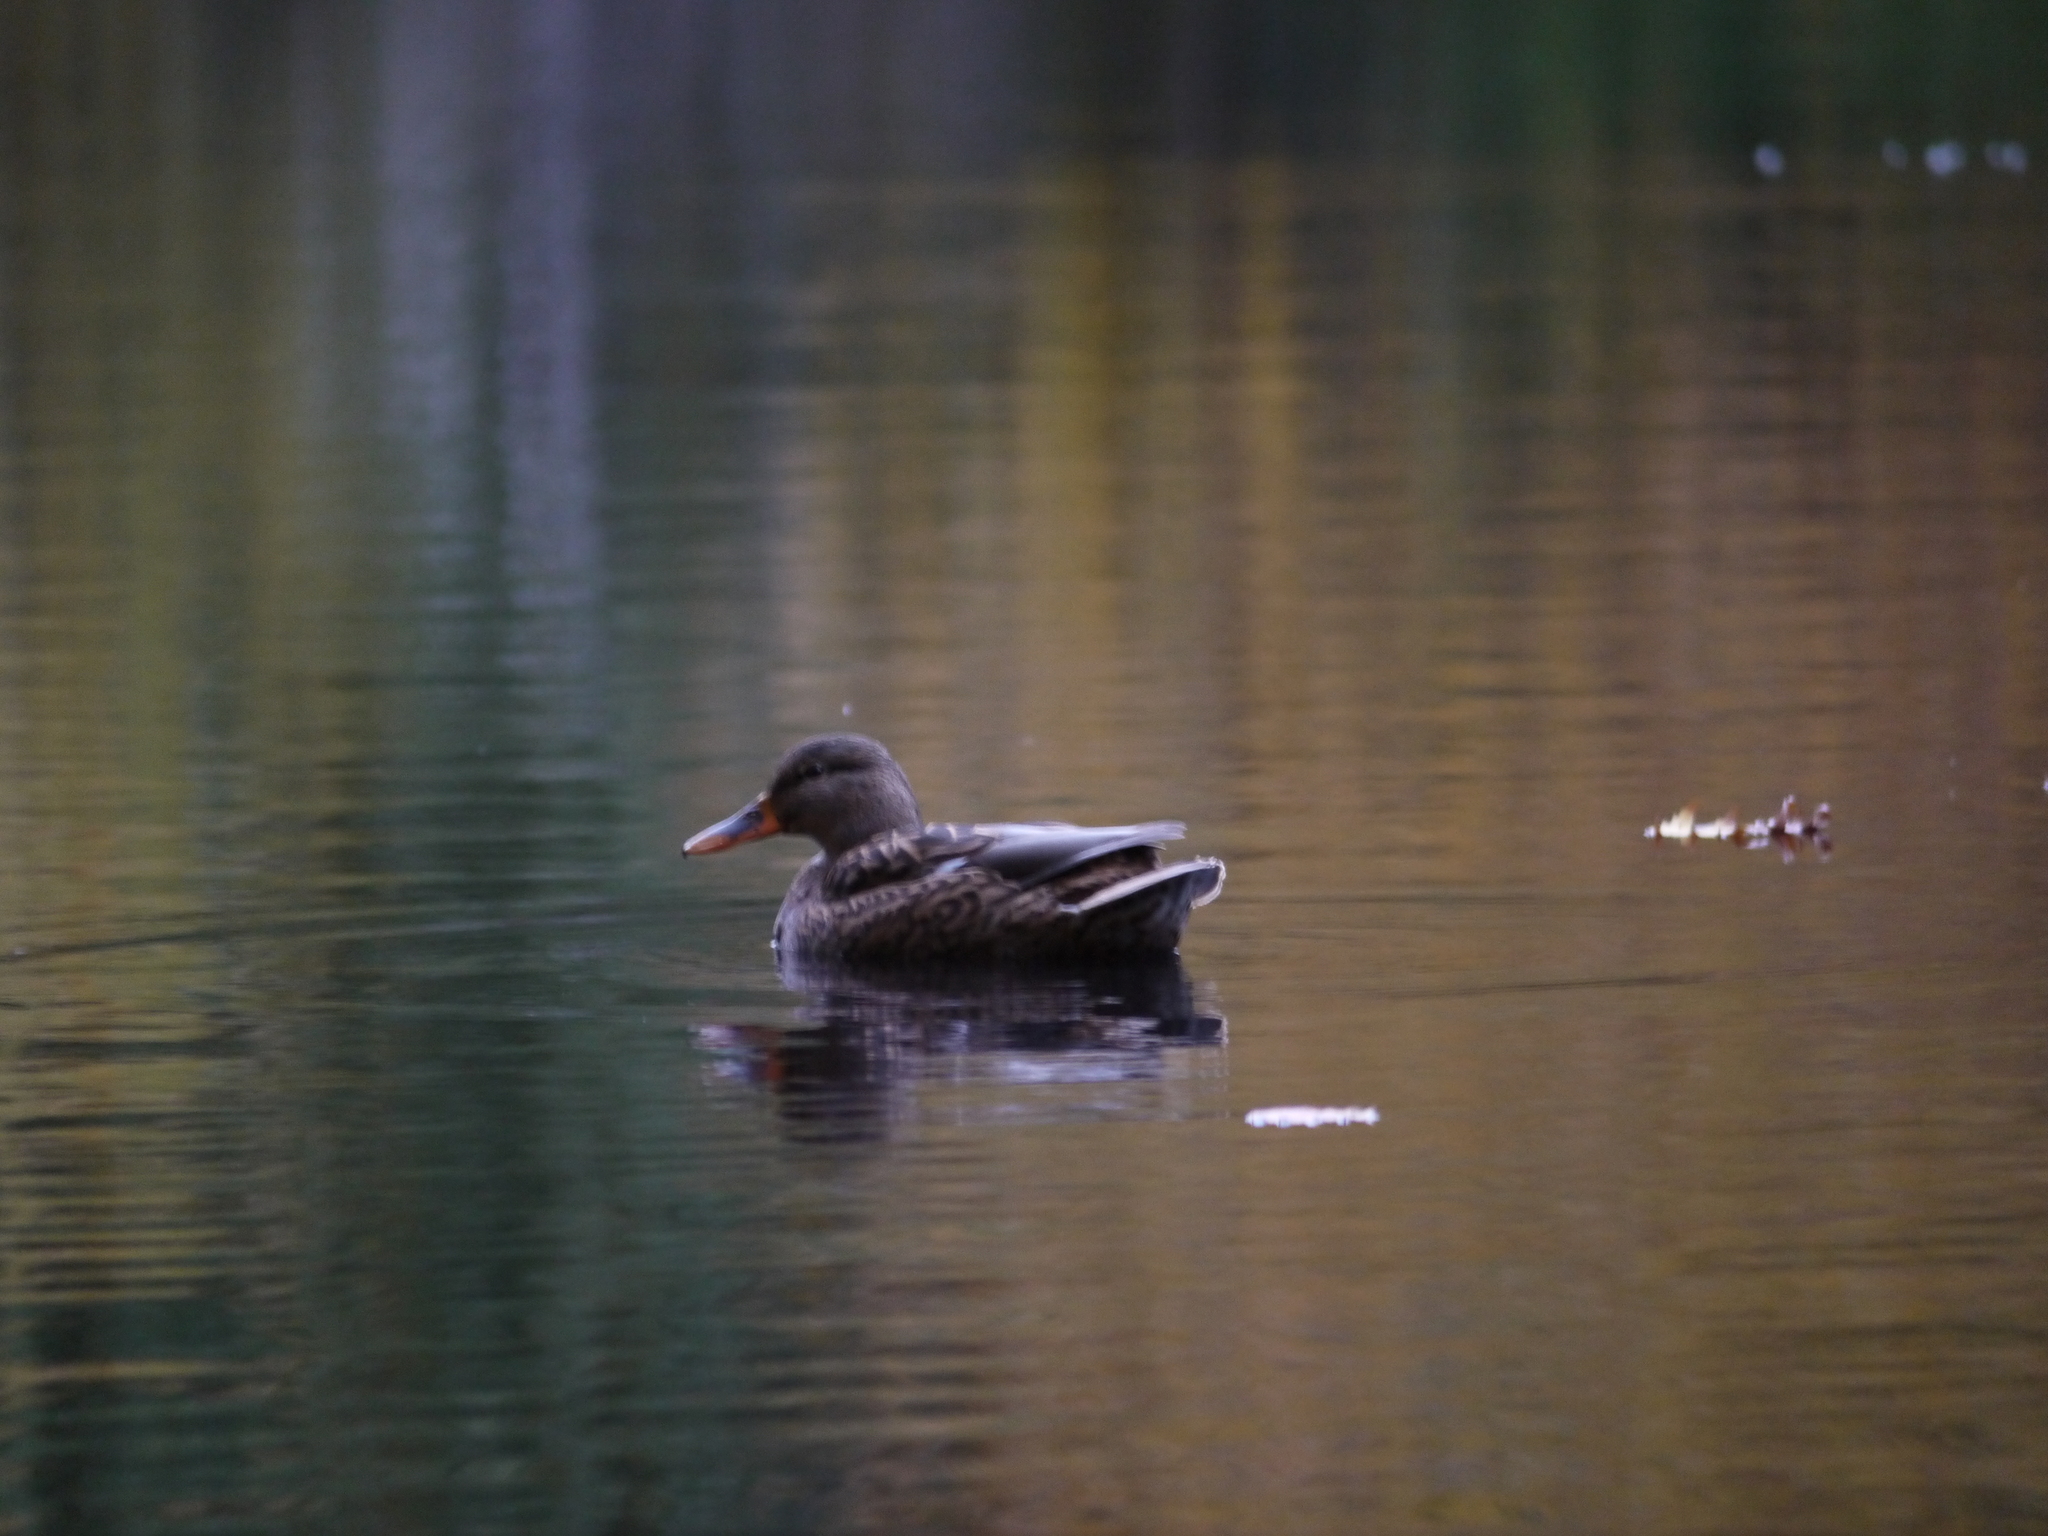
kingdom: Animalia
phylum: Chordata
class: Aves
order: Anseriformes
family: Anatidae
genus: Anas
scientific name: Anas platyrhynchos
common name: Mallard
